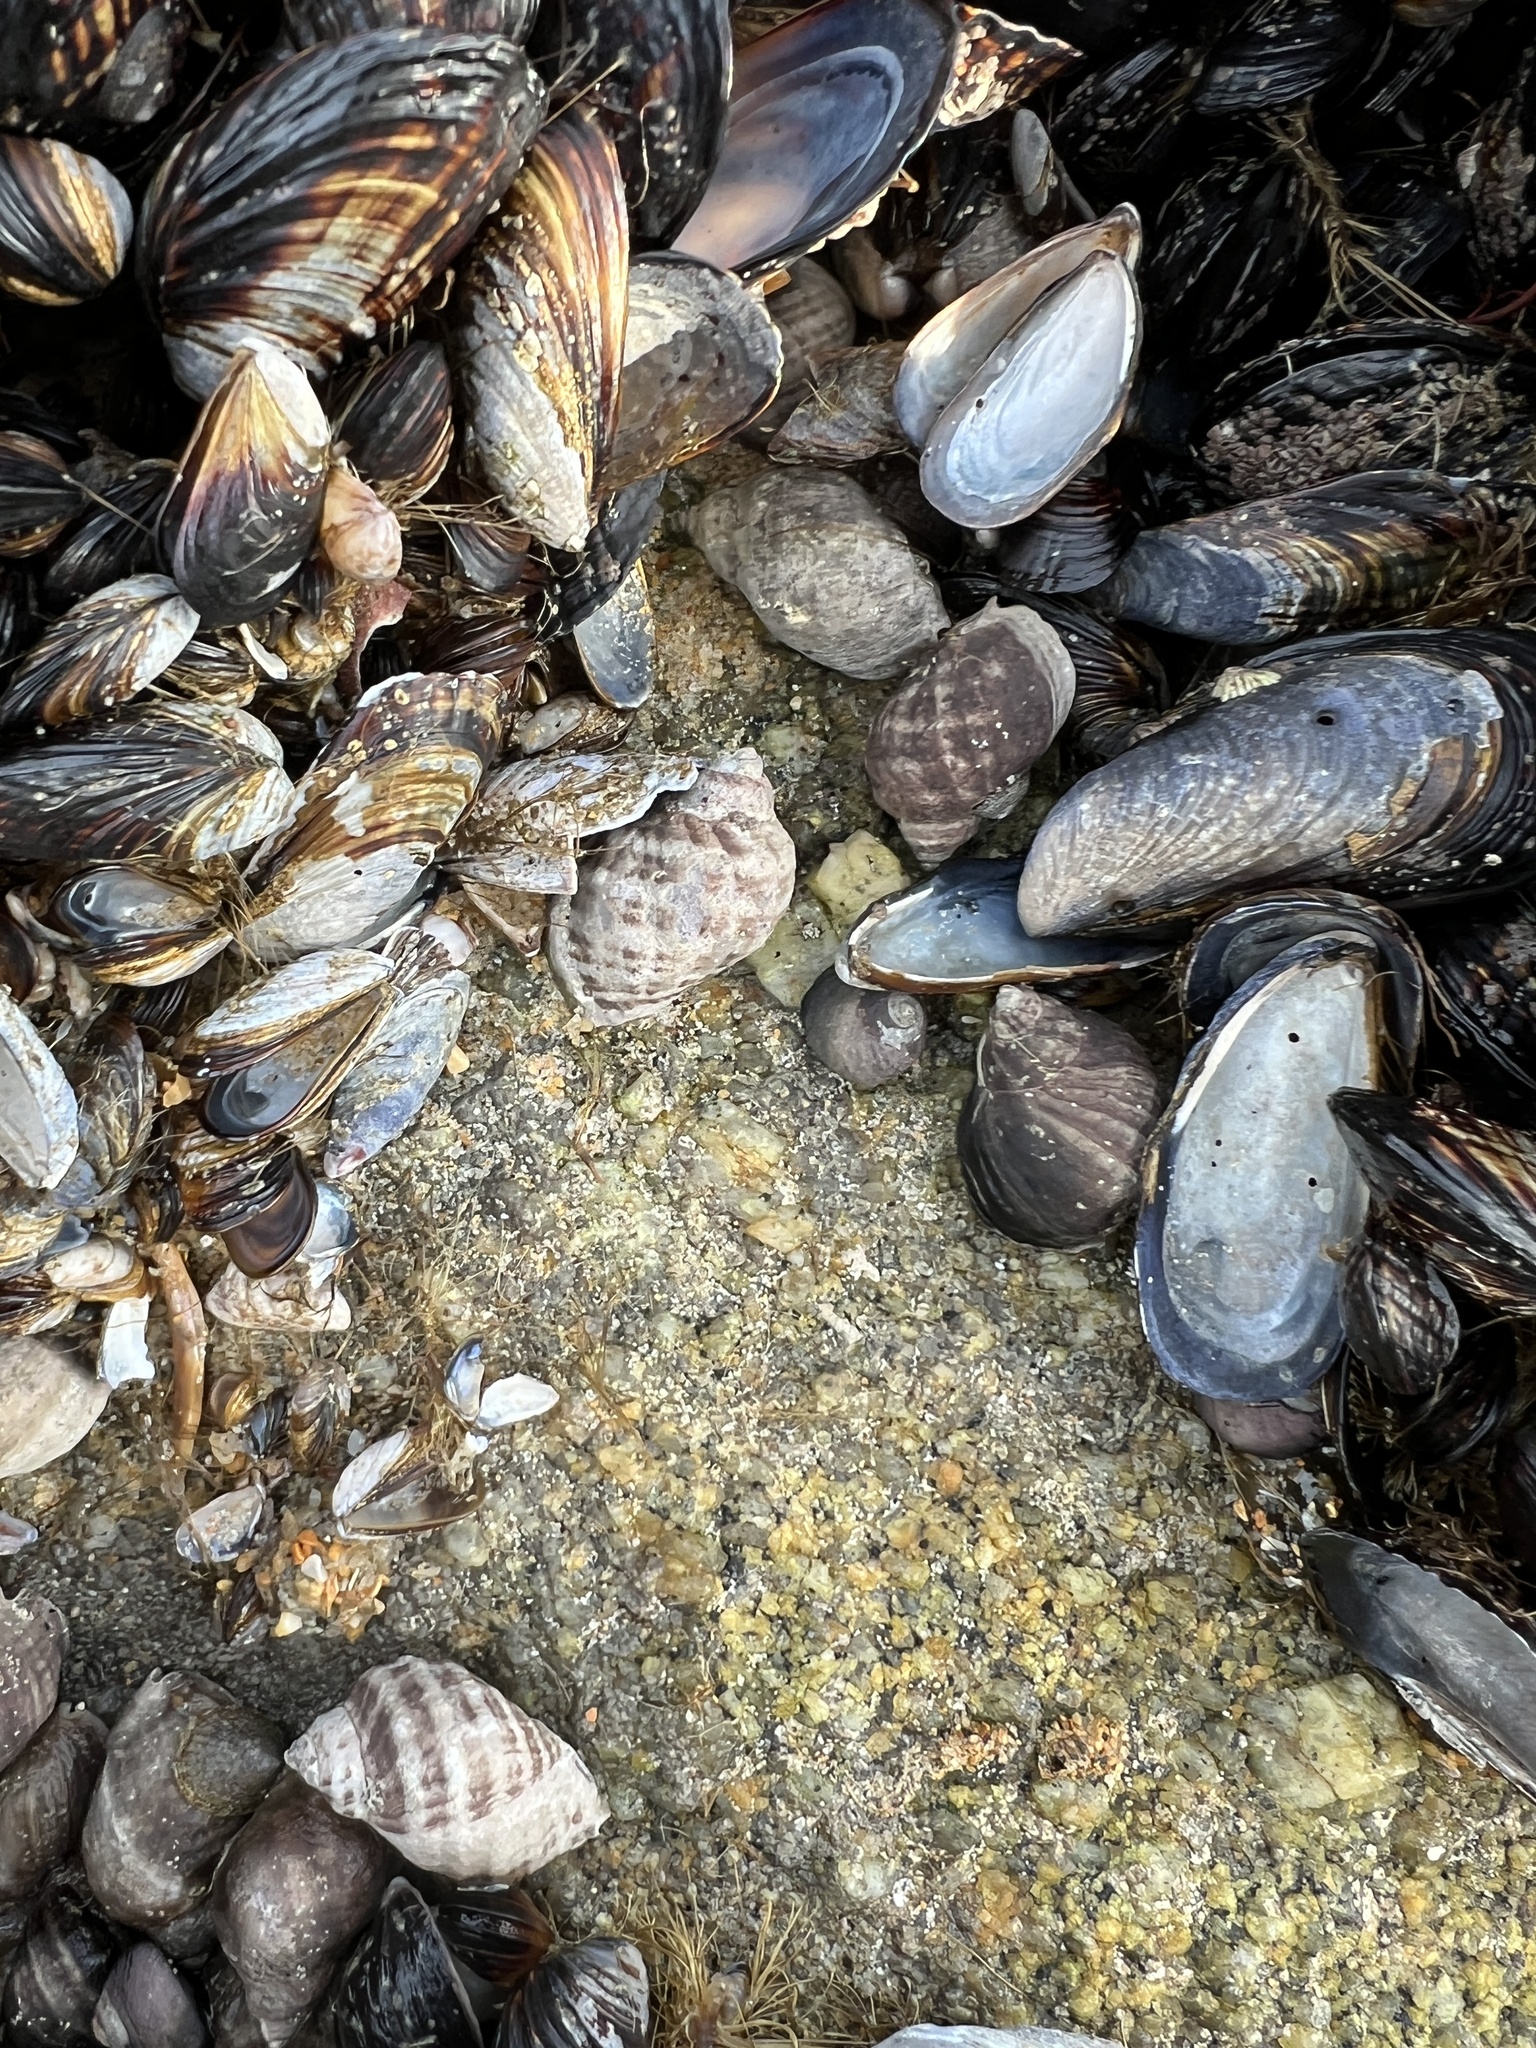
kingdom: Animalia
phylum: Mollusca
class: Gastropoda
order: Neogastropoda
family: Muricidae
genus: Nucella
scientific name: Nucella emarginata
